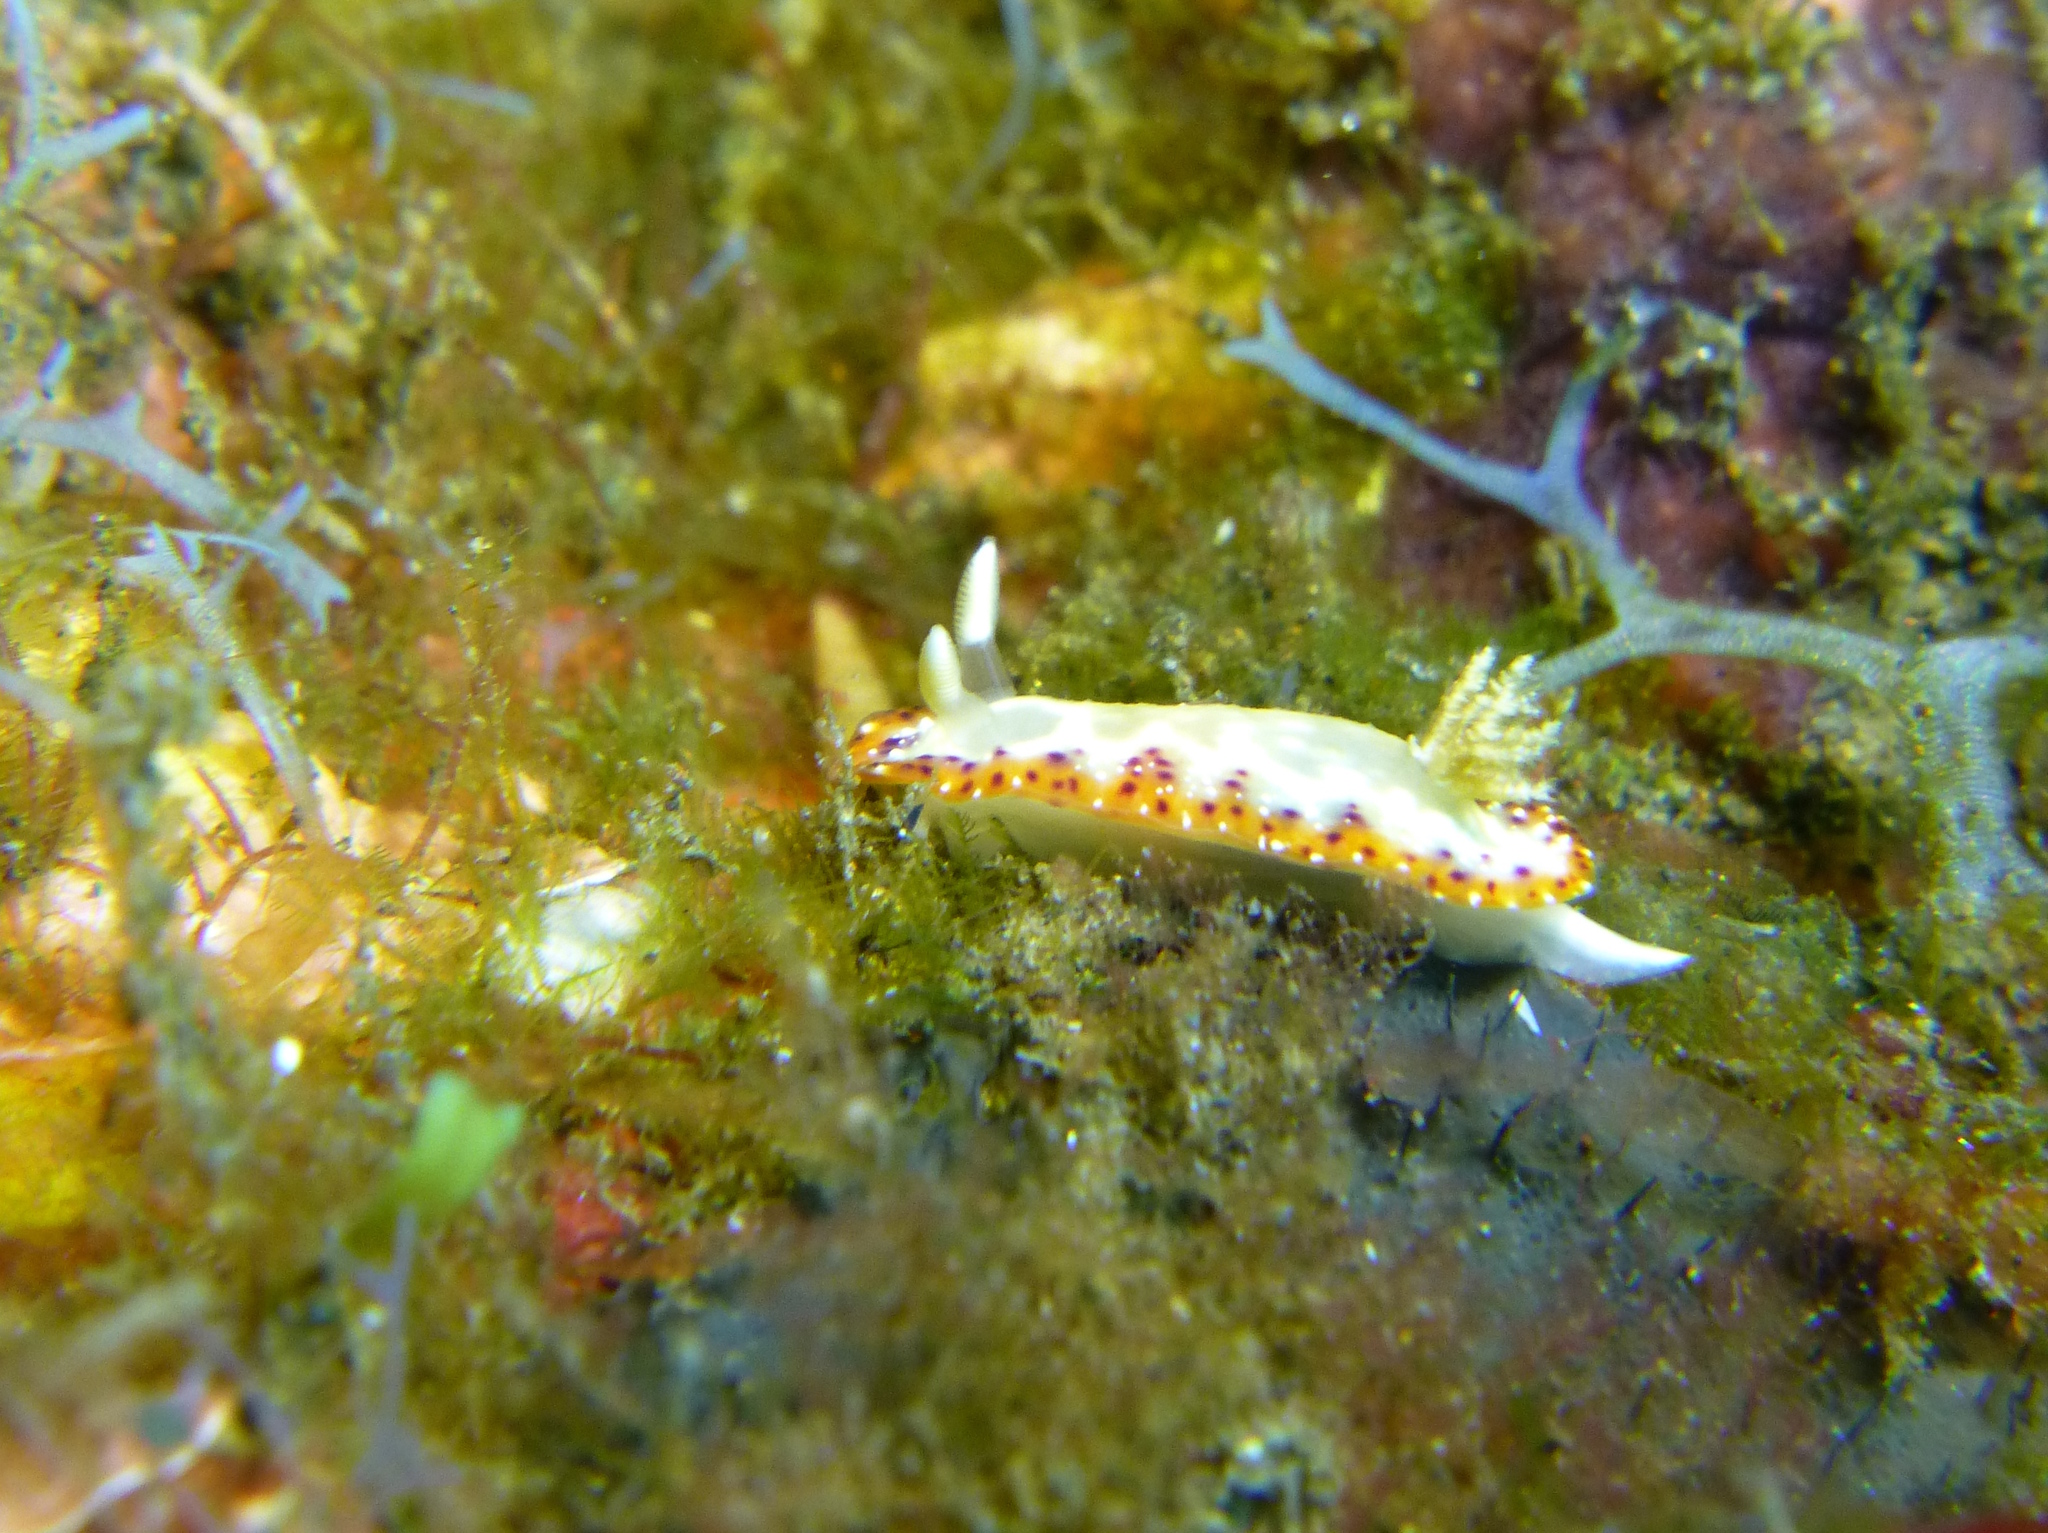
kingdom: Animalia
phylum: Mollusca
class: Gastropoda
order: Nudibranchia
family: Chromodorididae
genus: Goniobranchus
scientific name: Goniobranchus setoensis
